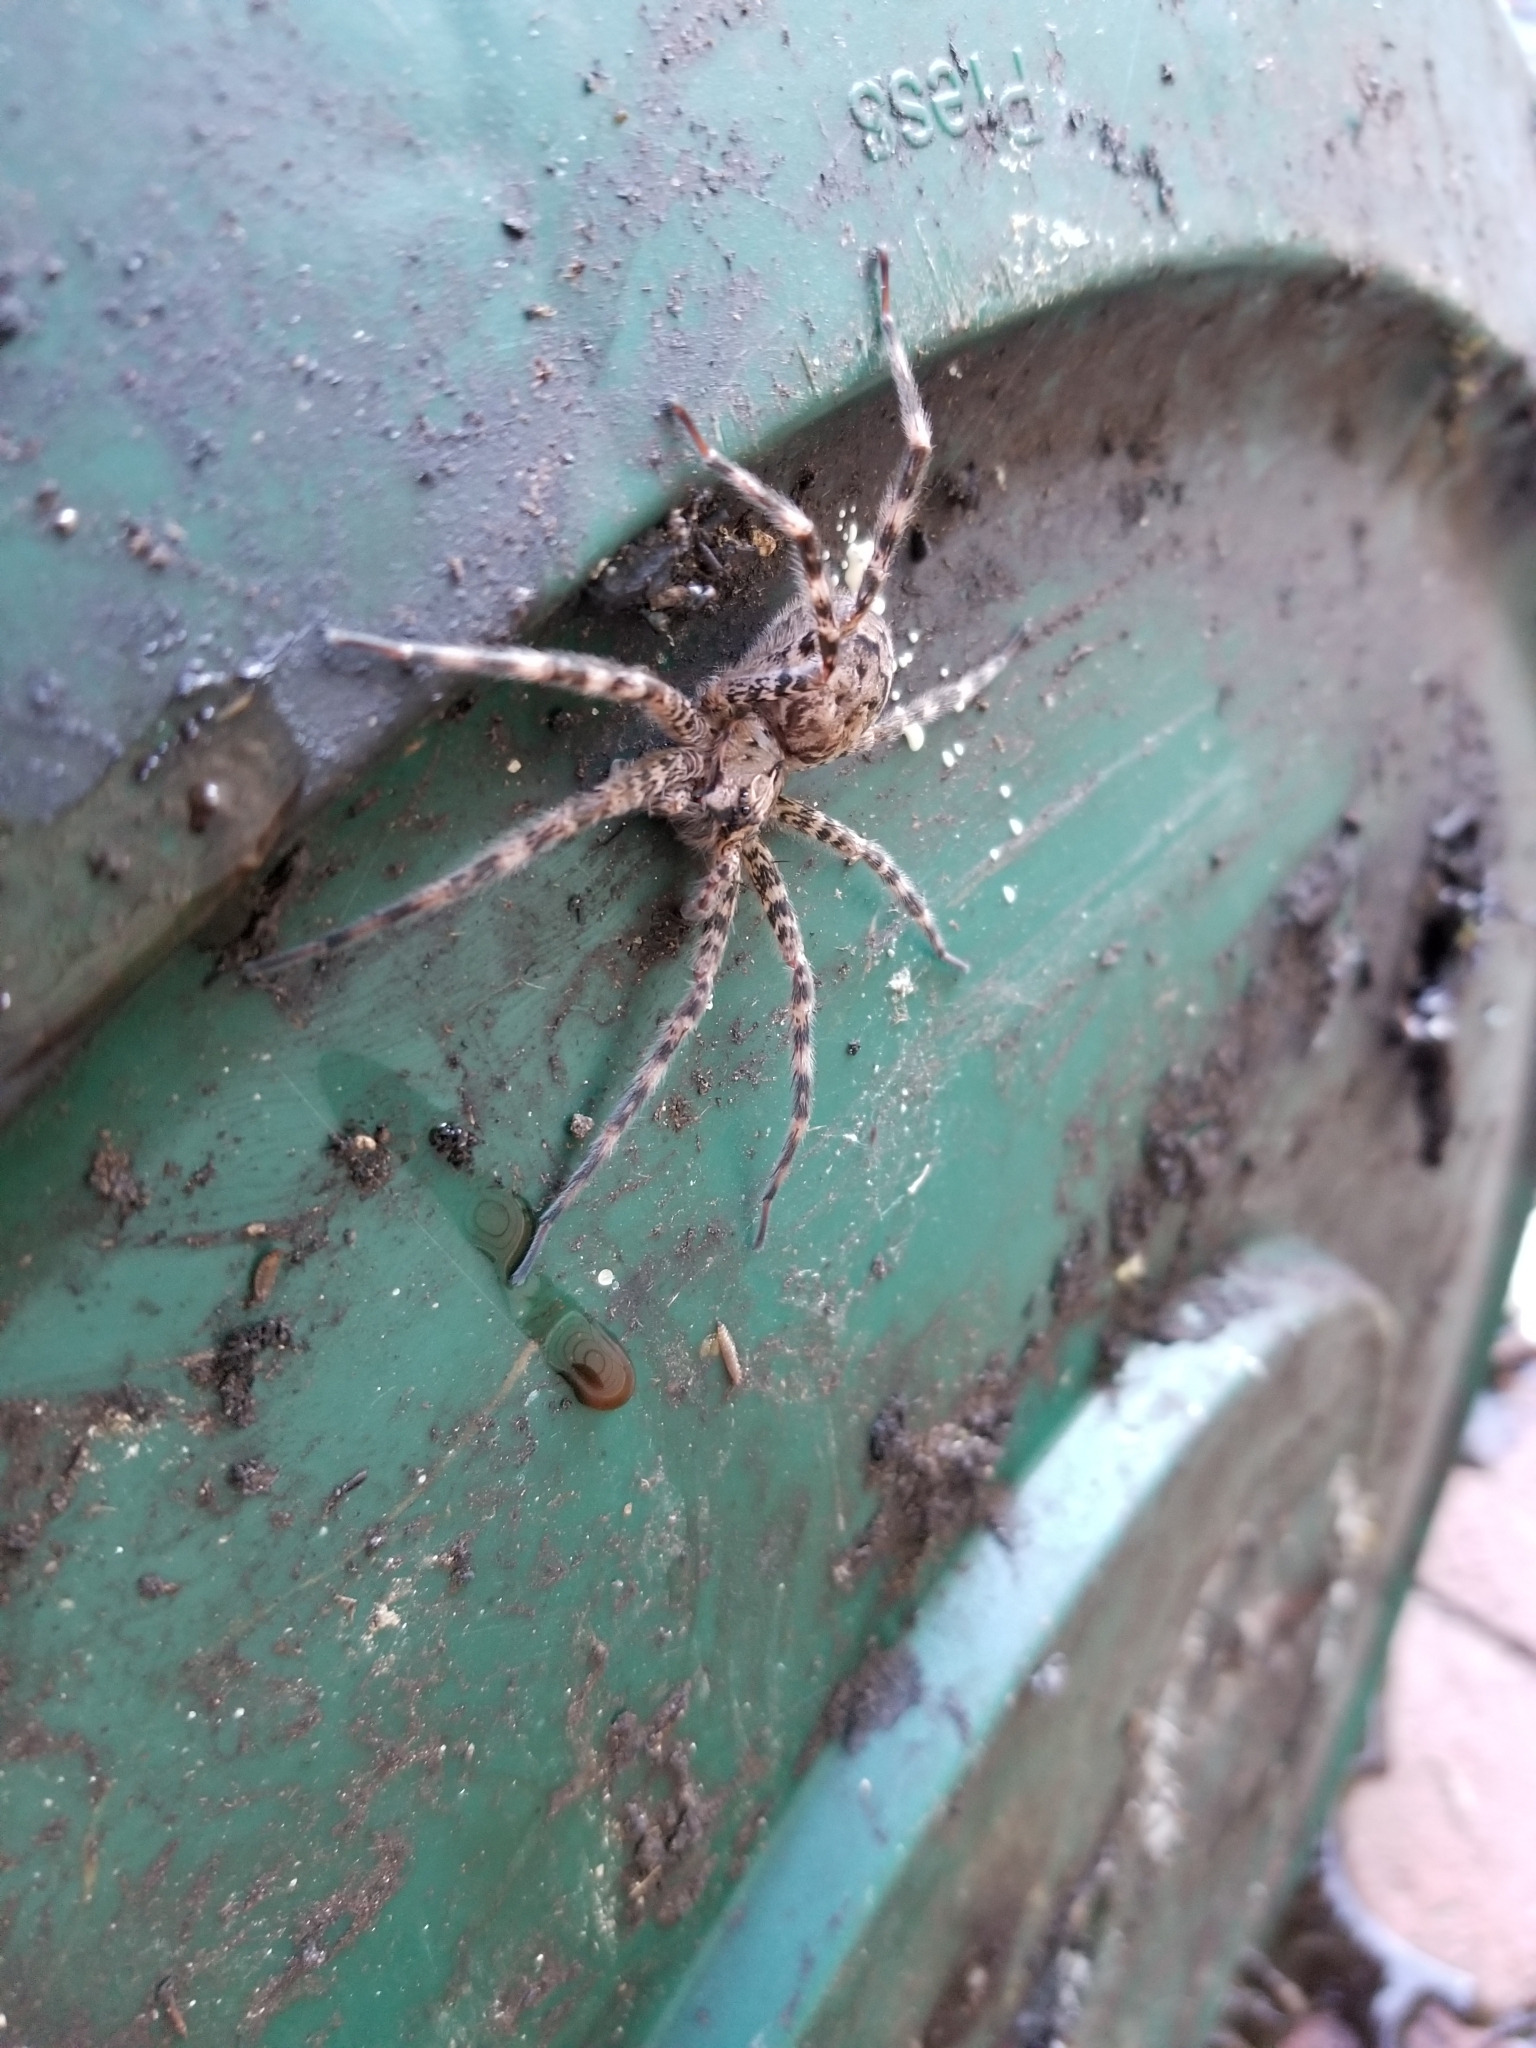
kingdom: Animalia
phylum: Arthropoda
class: Arachnida
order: Araneae
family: Pisauridae
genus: Dolomedes
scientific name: Dolomedes tenebrosus
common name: Dark fishing spider
